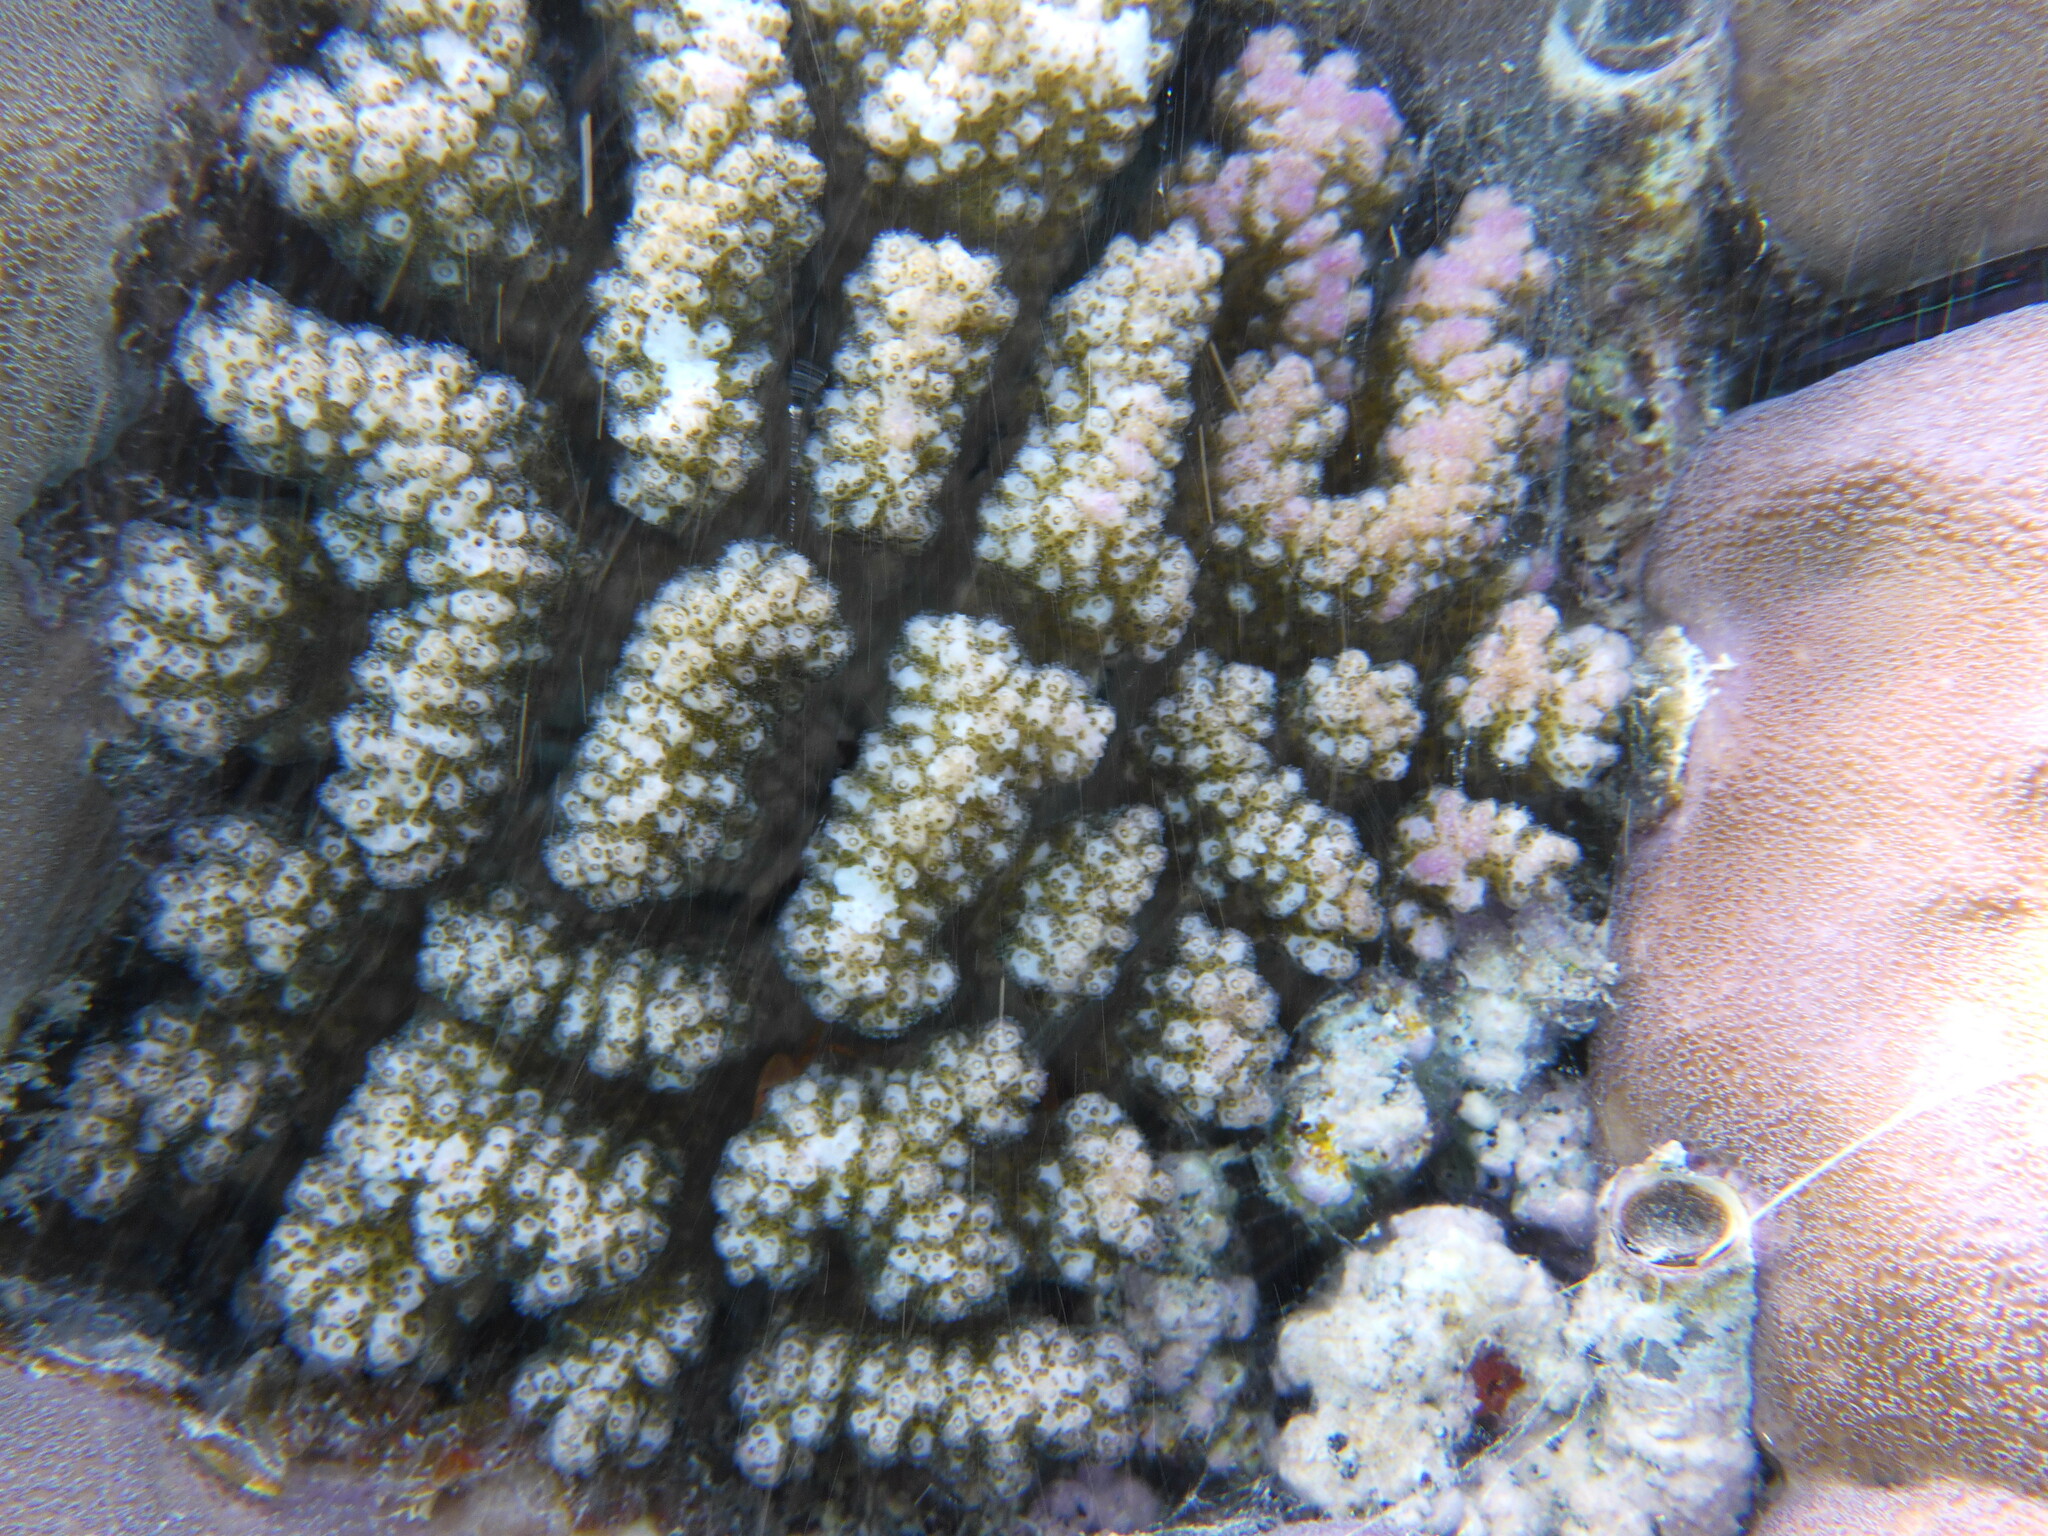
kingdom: Animalia
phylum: Cnidaria
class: Anthozoa
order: Scleractinia
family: Pocilloporidae
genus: Pocillopora
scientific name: Pocillopora verrucosa
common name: Cauliflower coral
